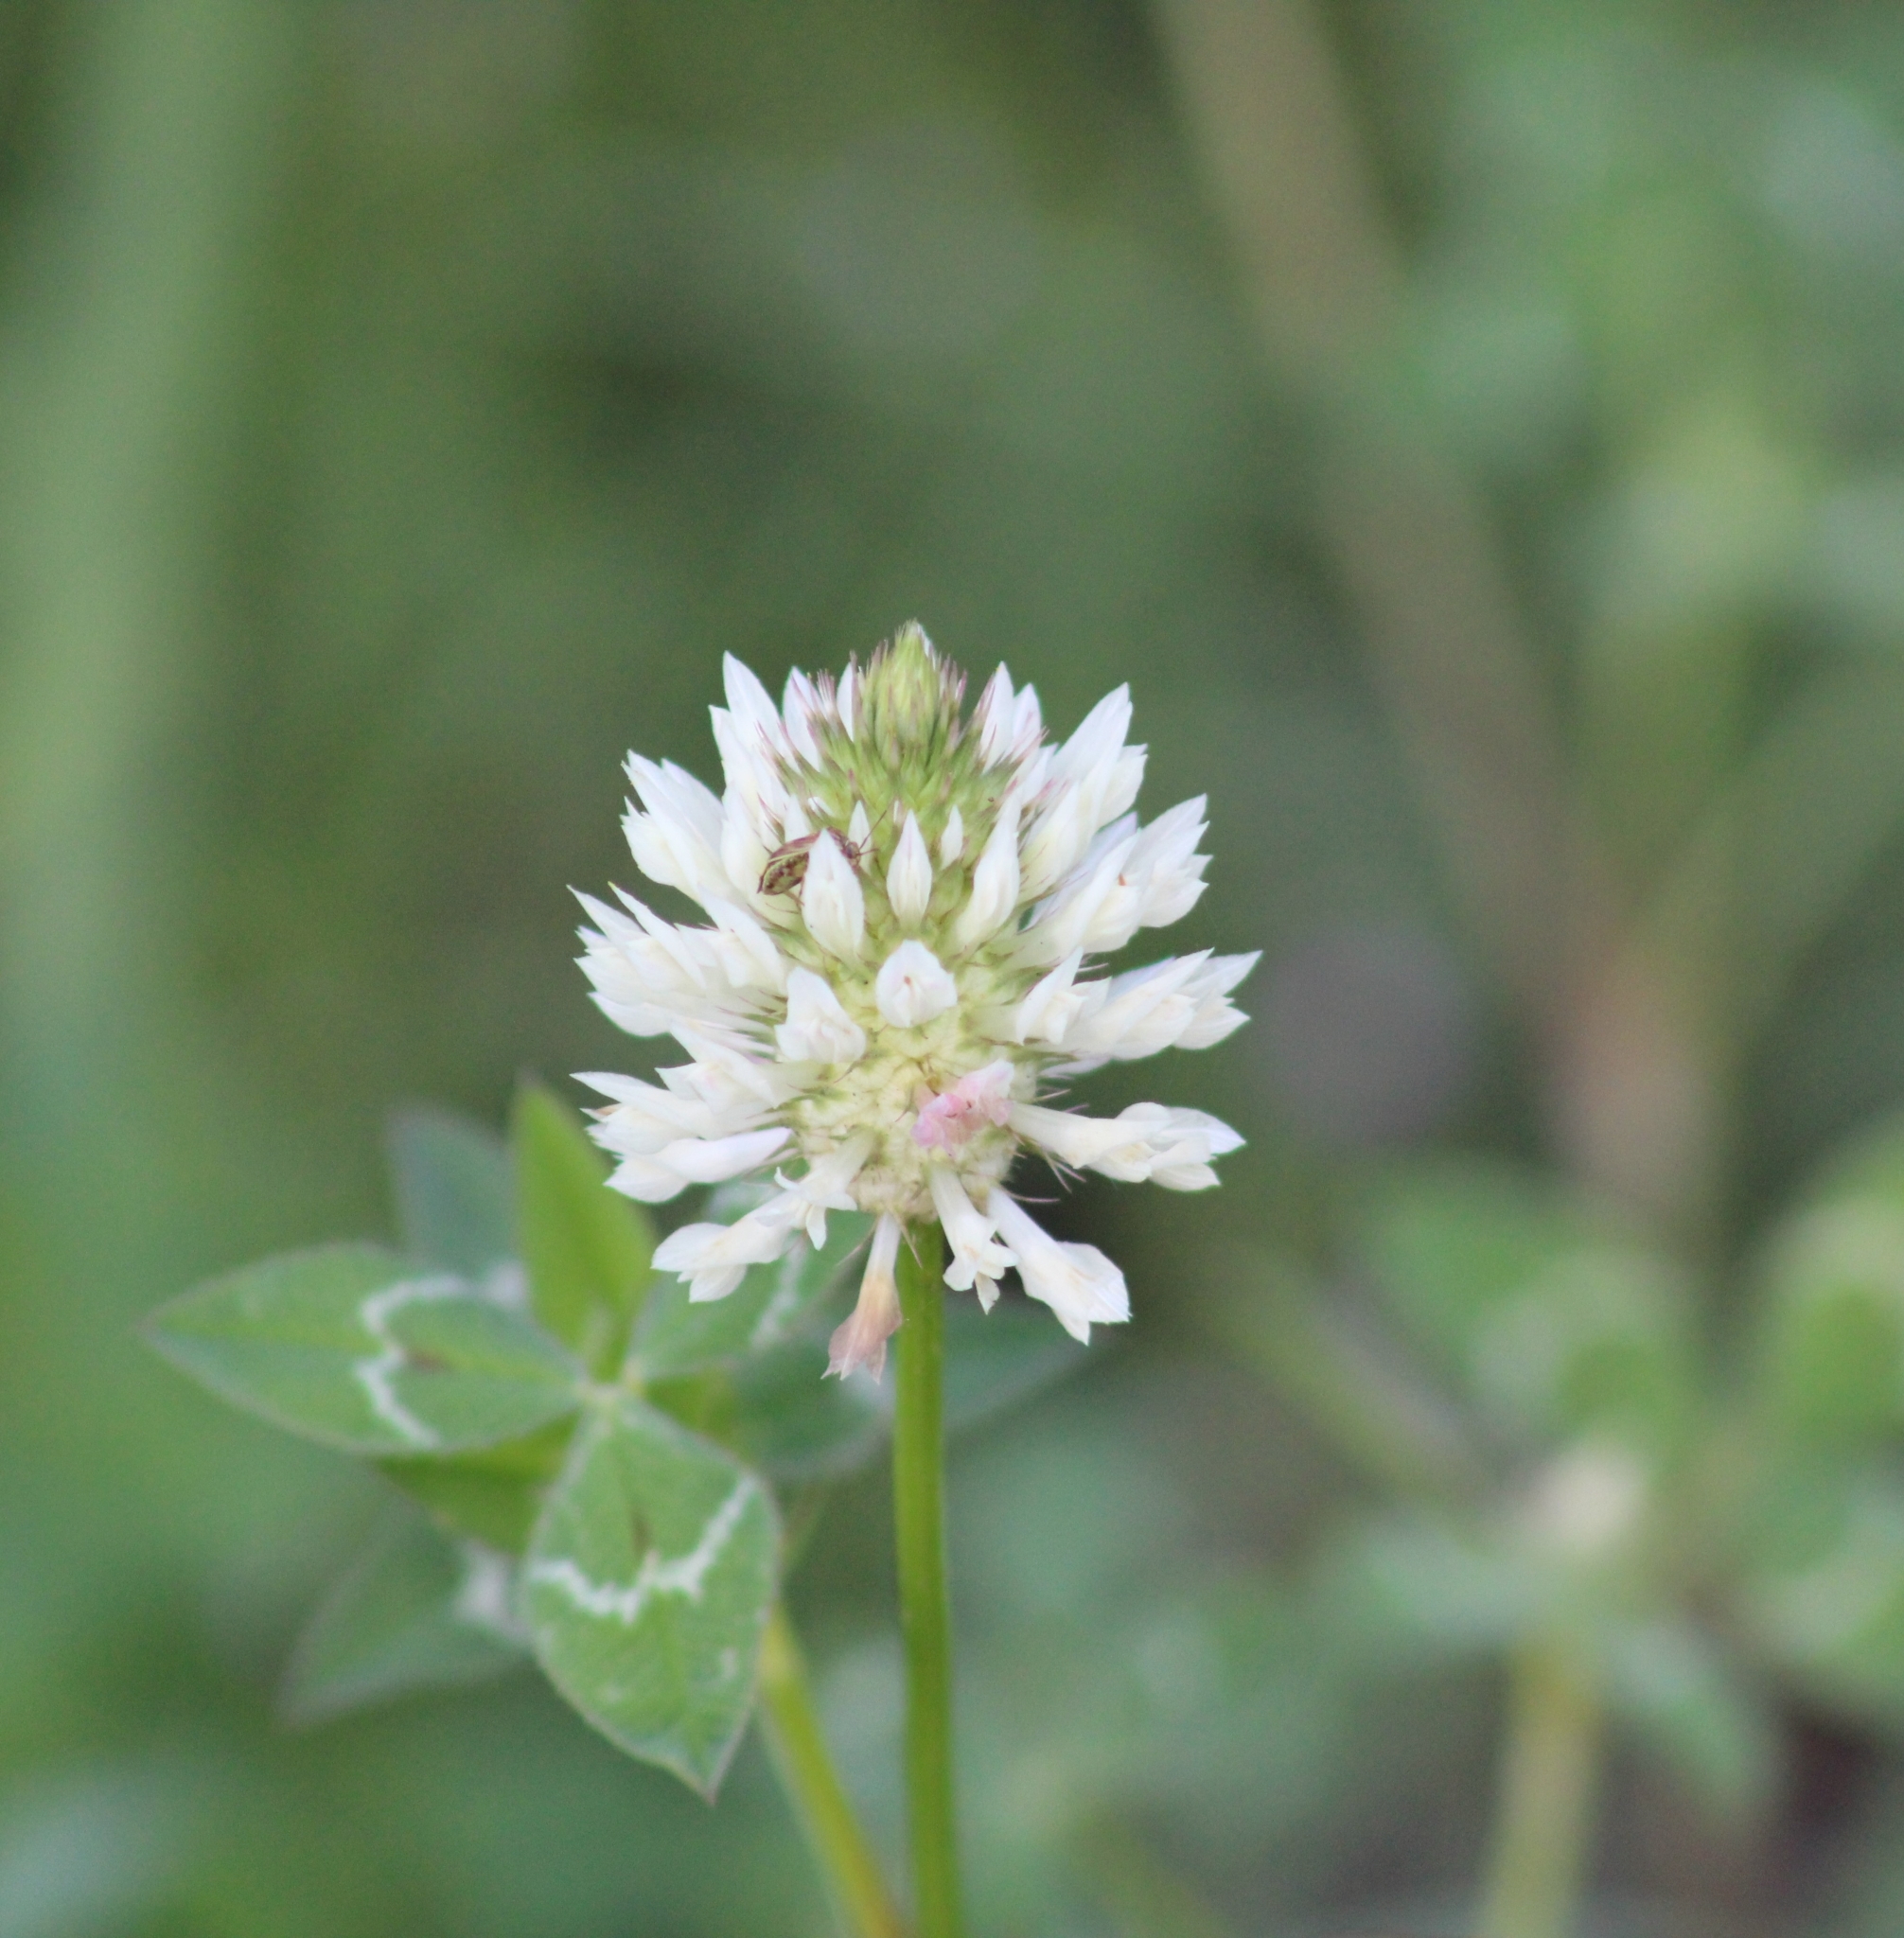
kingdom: Plantae
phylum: Tracheophyta
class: Magnoliopsida
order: Fabales
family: Fabaceae
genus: Trifolium
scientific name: Trifolium vesiculosum
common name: Arrowleaf clover
